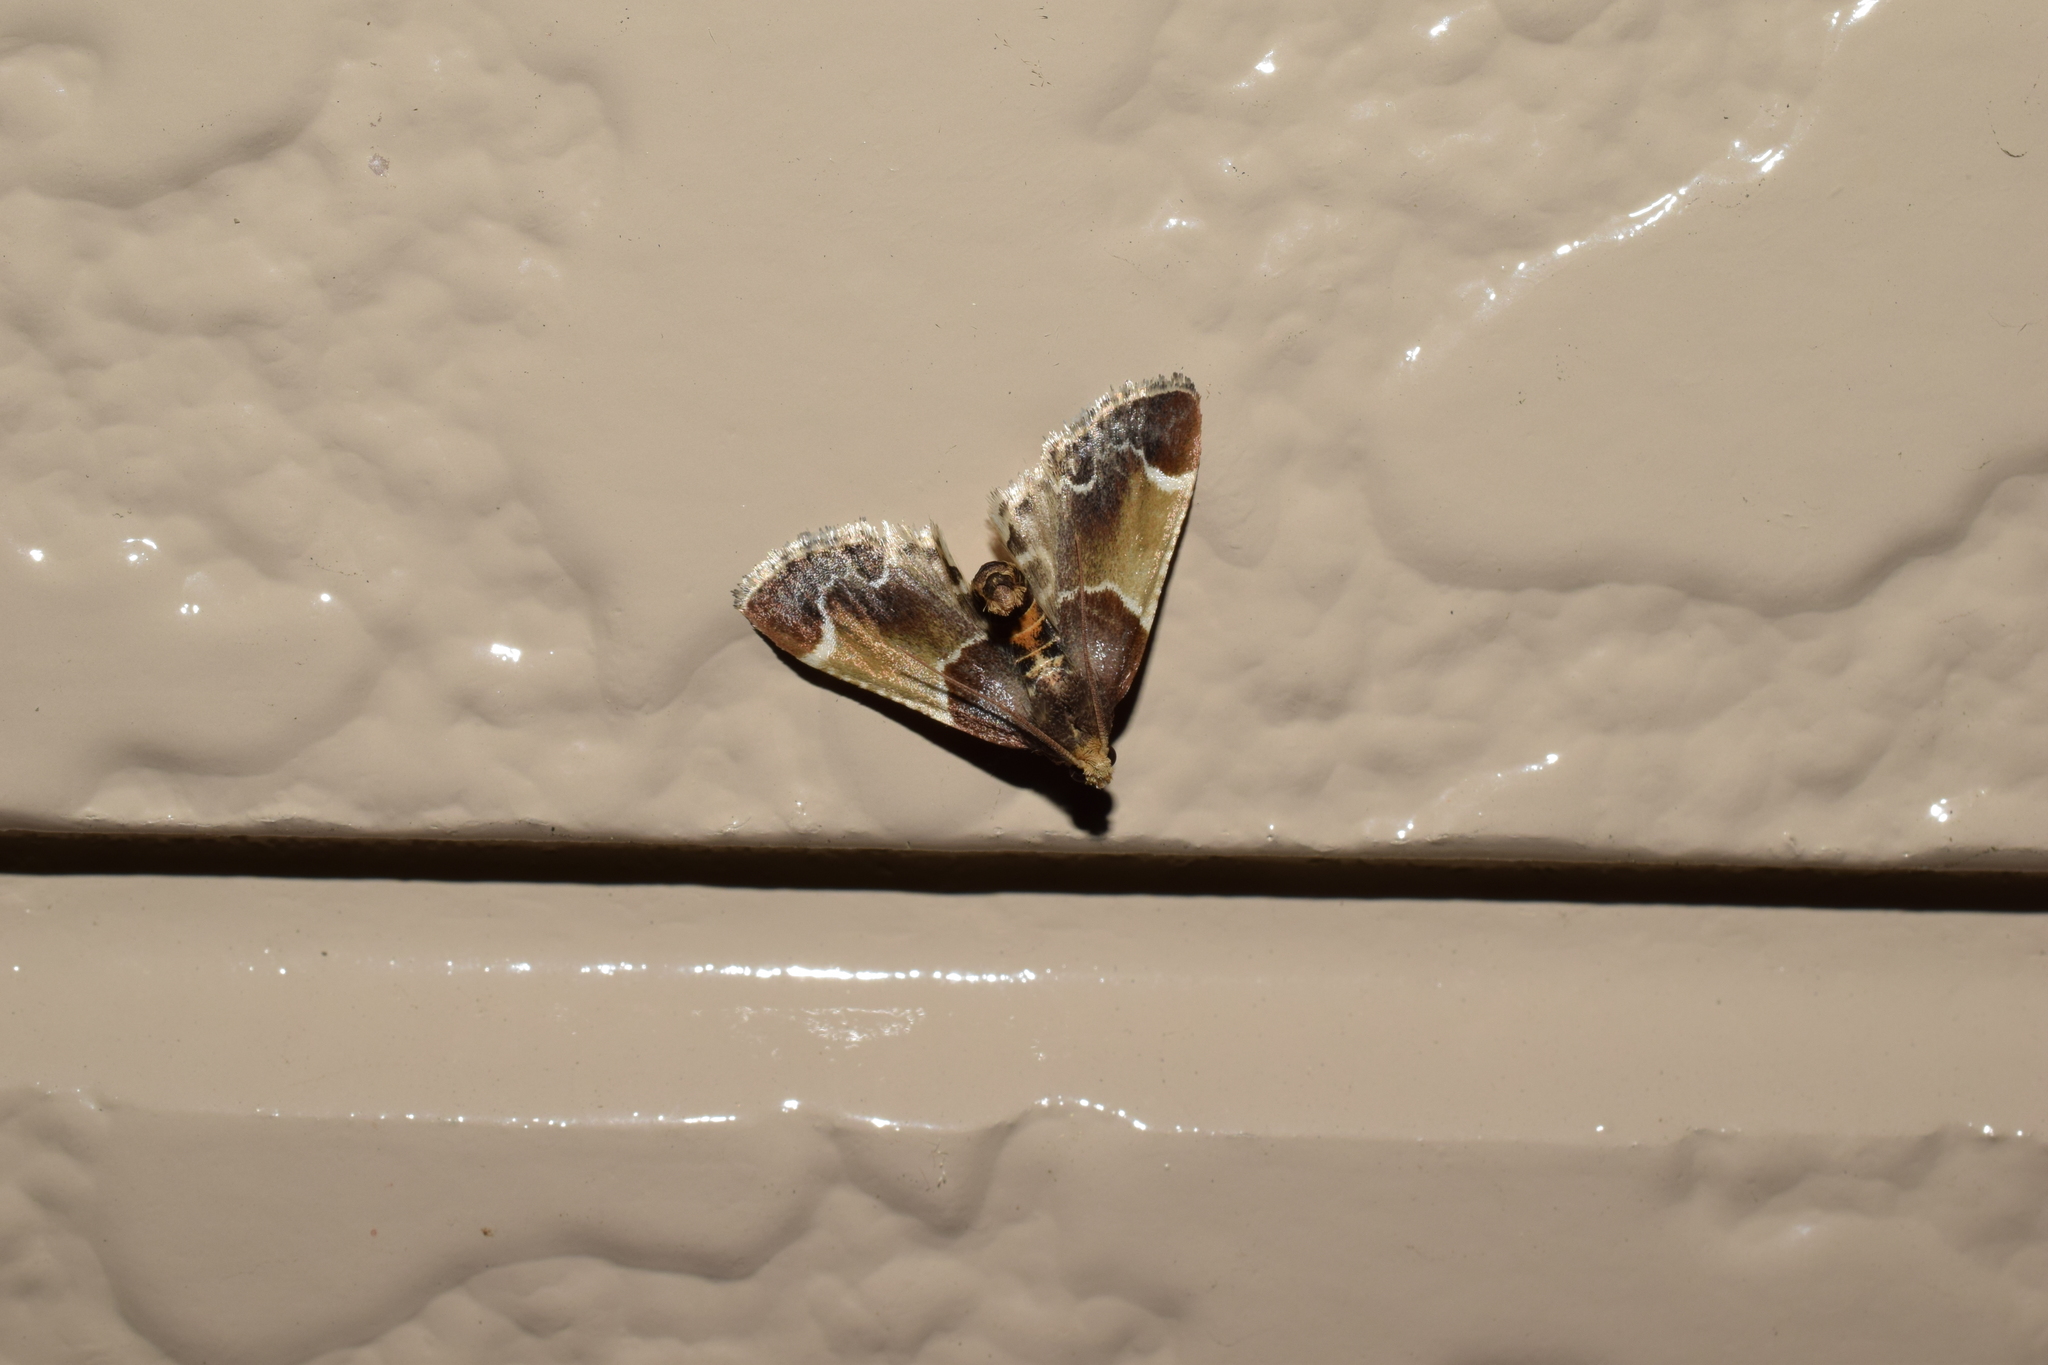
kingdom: Animalia
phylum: Arthropoda
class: Insecta
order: Lepidoptera
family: Pyralidae
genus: Pyralis
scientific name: Pyralis farinalis
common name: Meal moth
